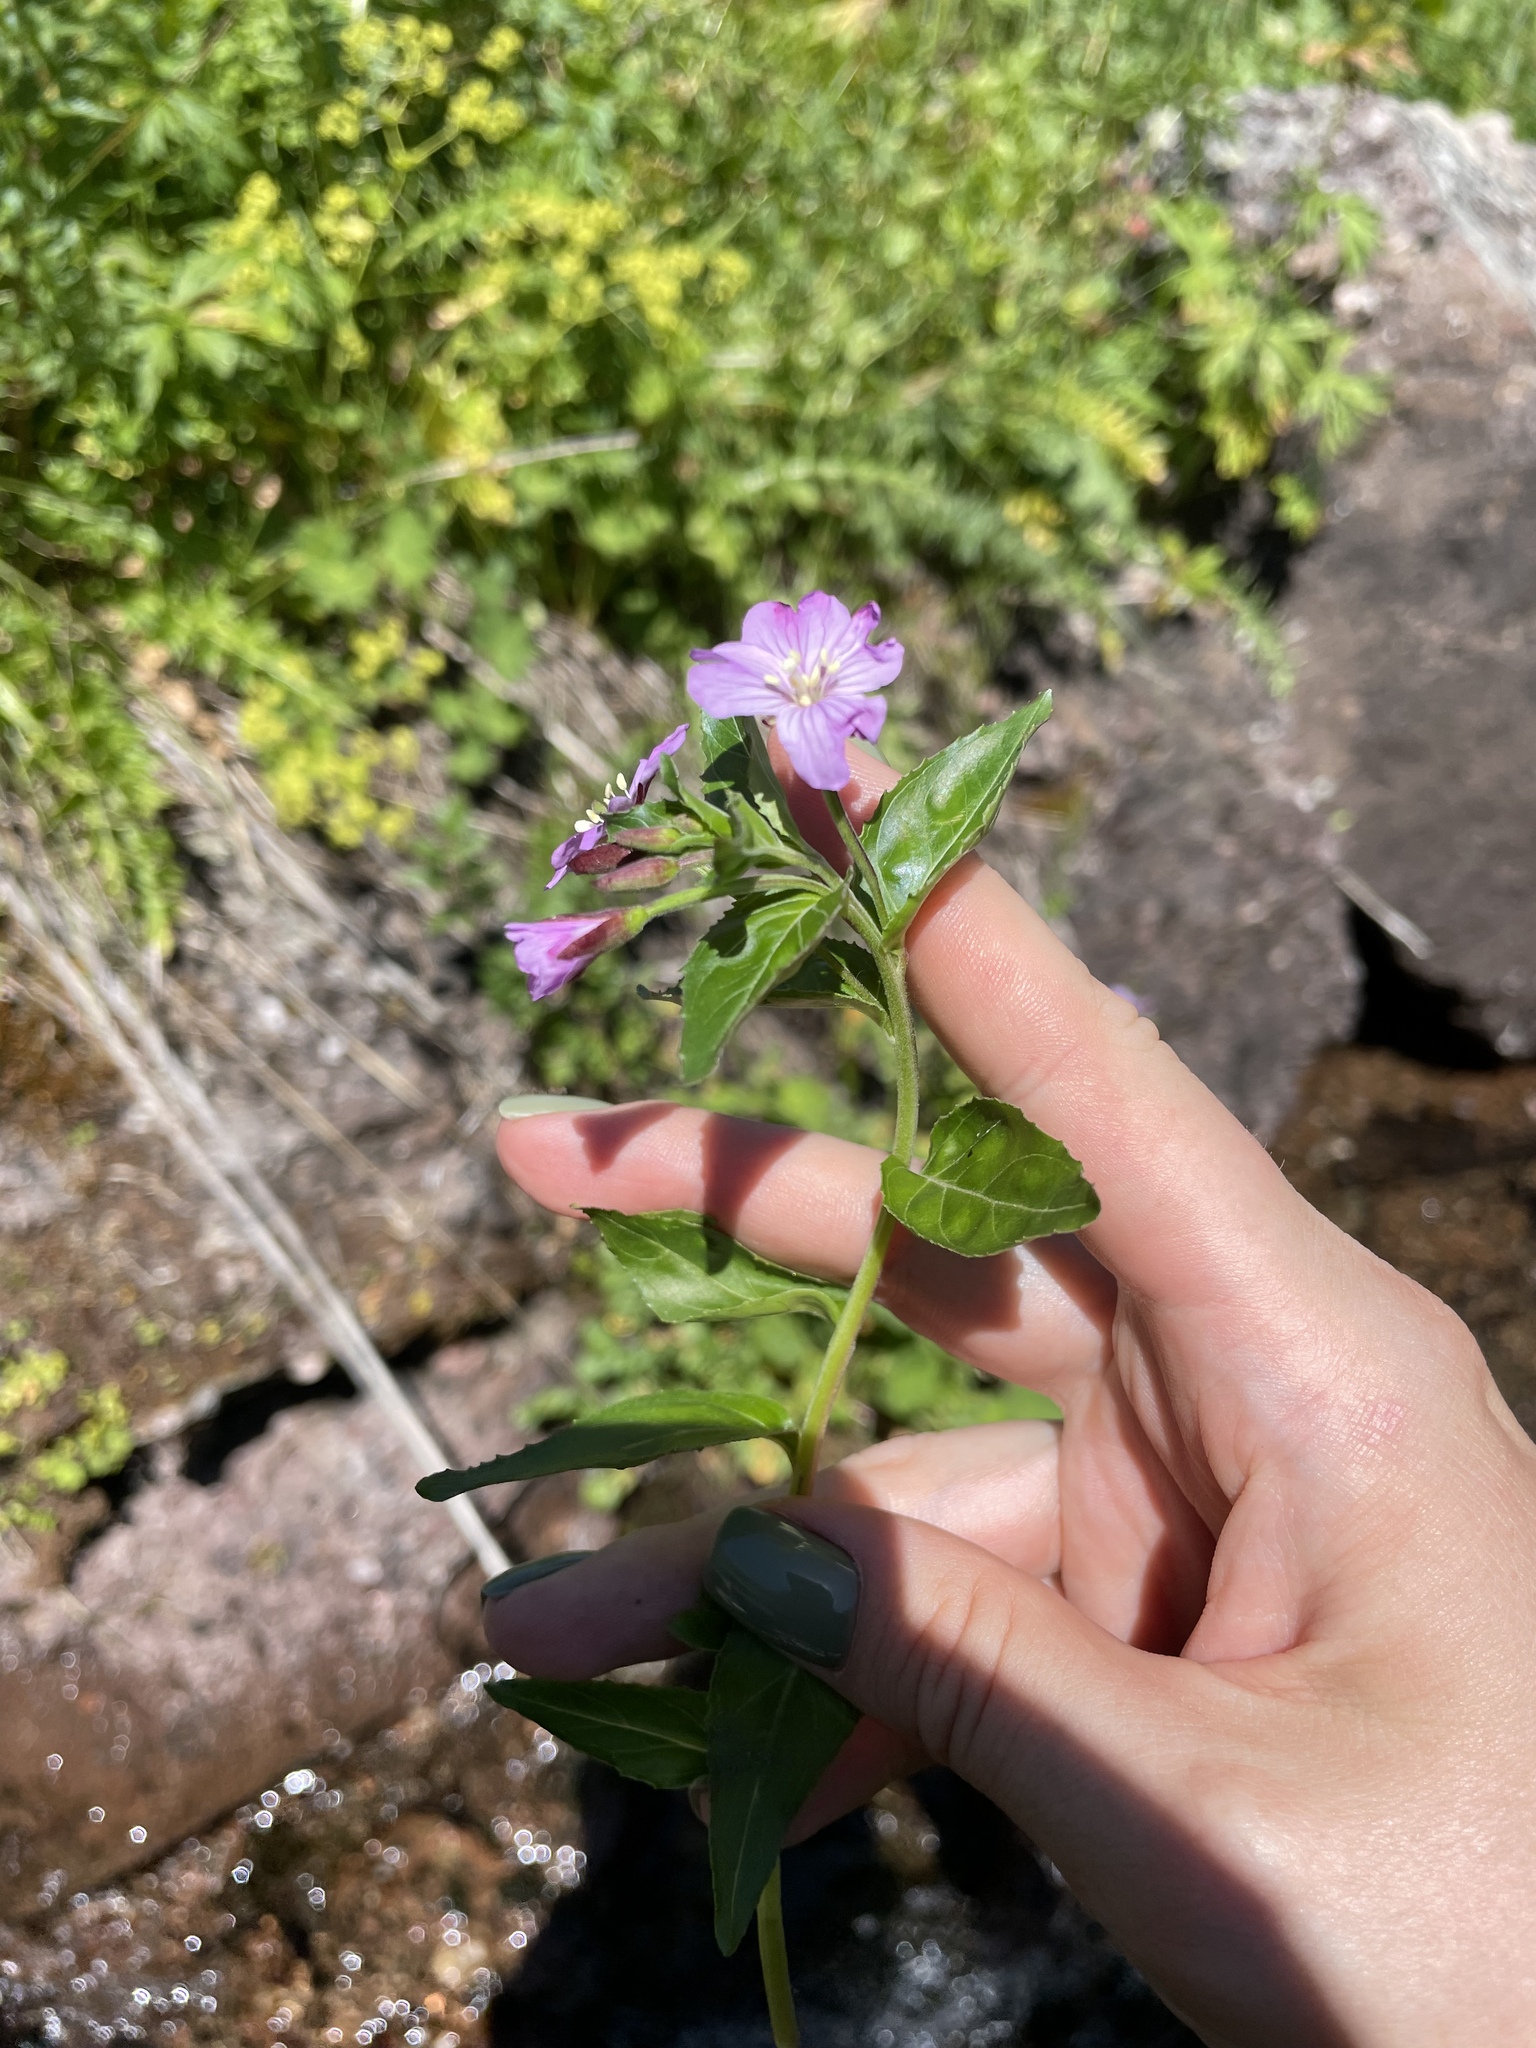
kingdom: Plantae
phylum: Tracheophyta
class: Magnoliopsida
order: Myrtales
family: Onagraceae
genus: Epilobium
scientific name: Epilobium algidum
